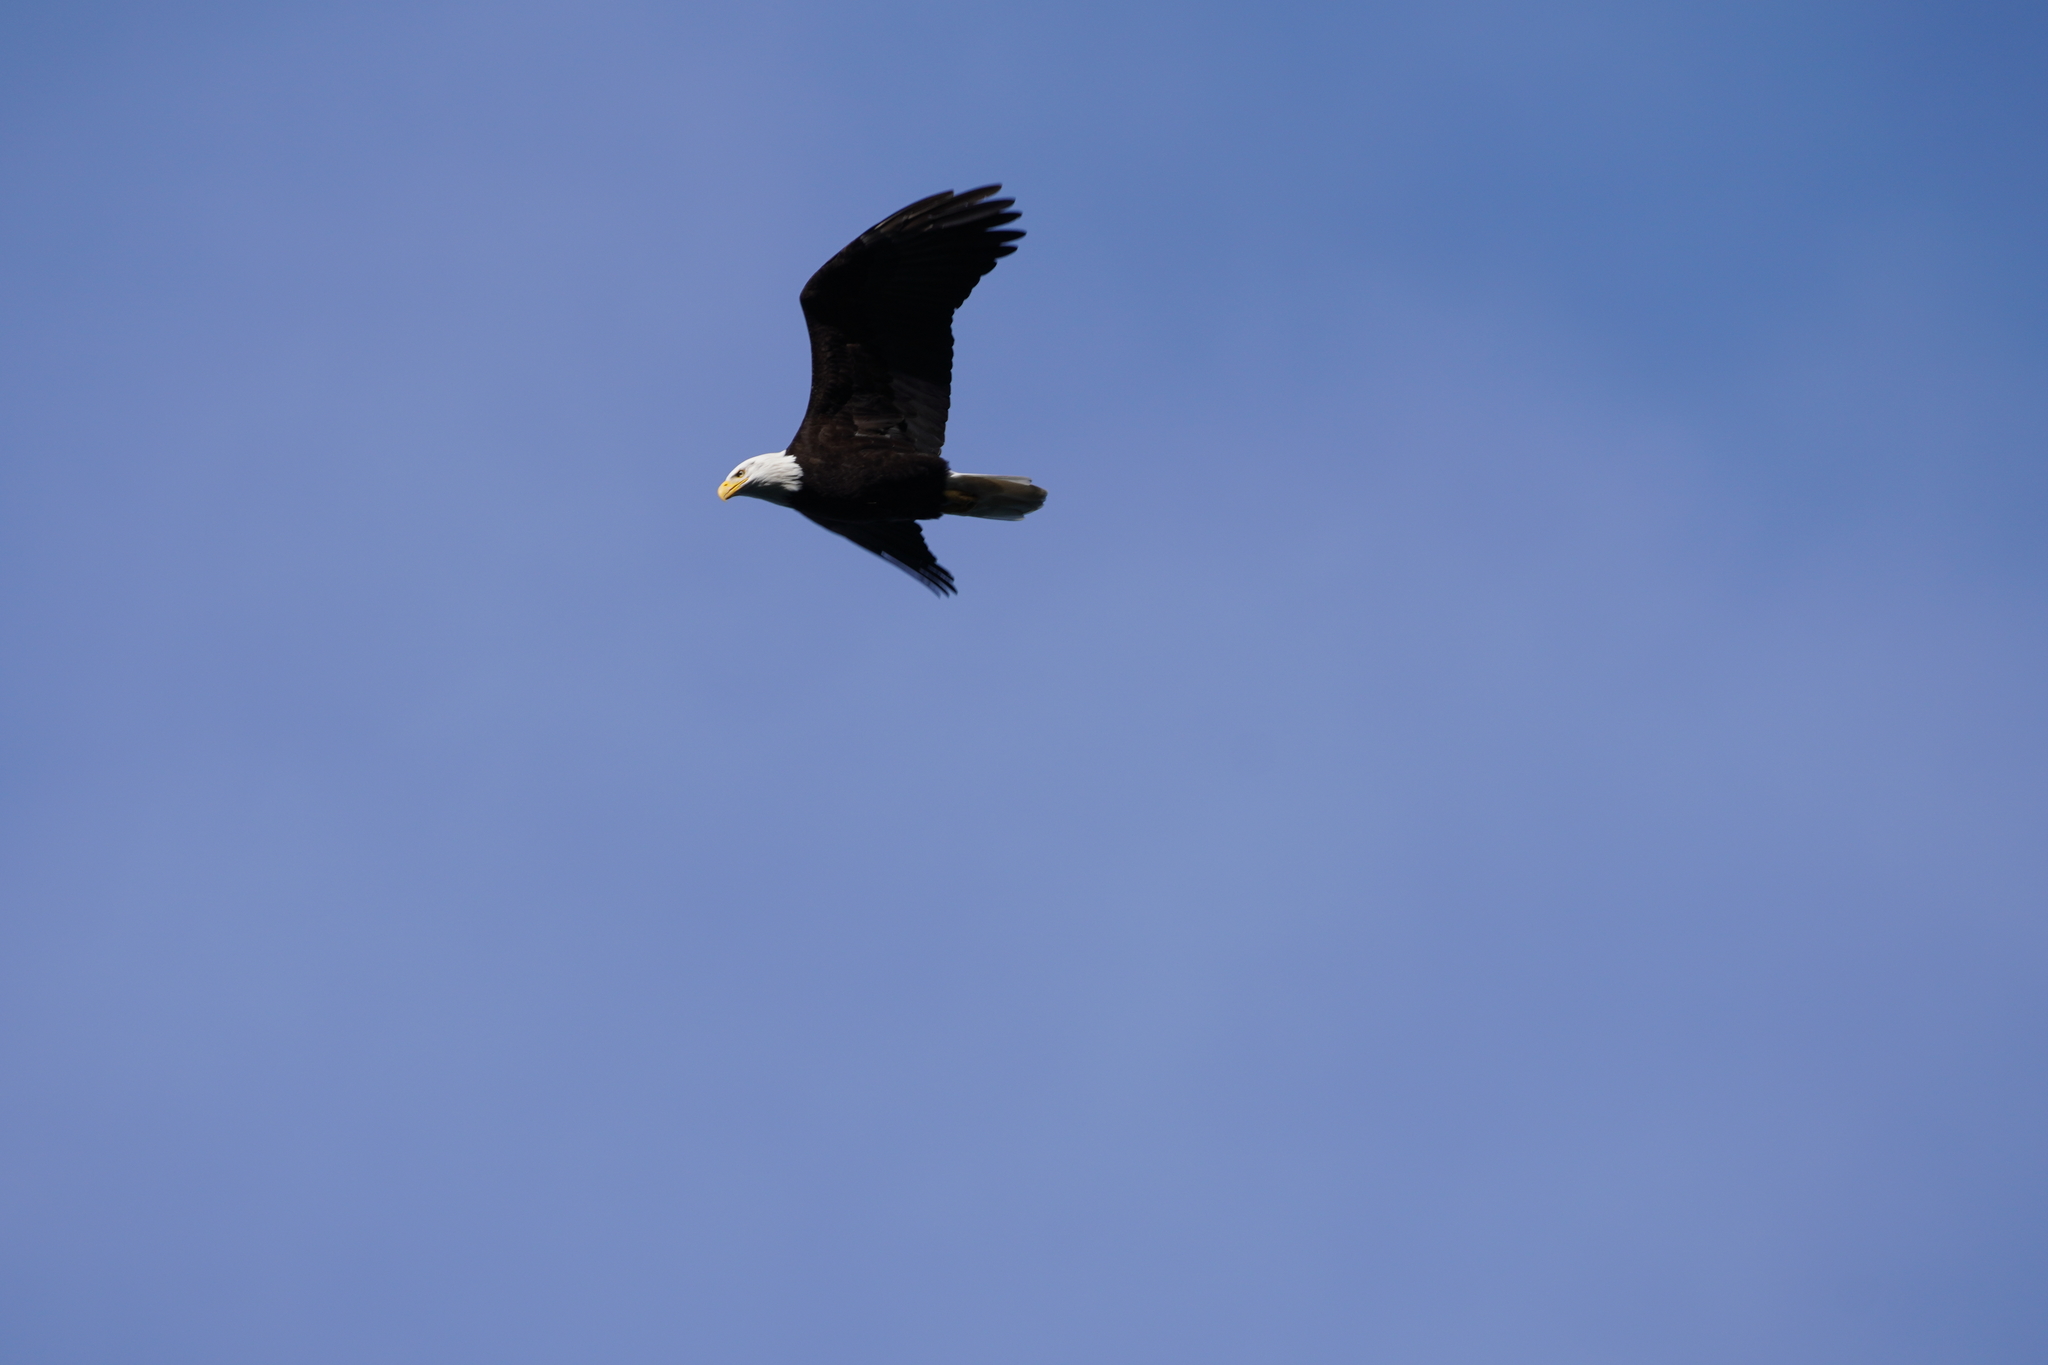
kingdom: Animalia
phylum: Chordata
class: Aves
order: Accipitriformes
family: Accipitridae
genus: Haliaeetus
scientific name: Haliaeetus leucocephalus
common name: Bald eagle
